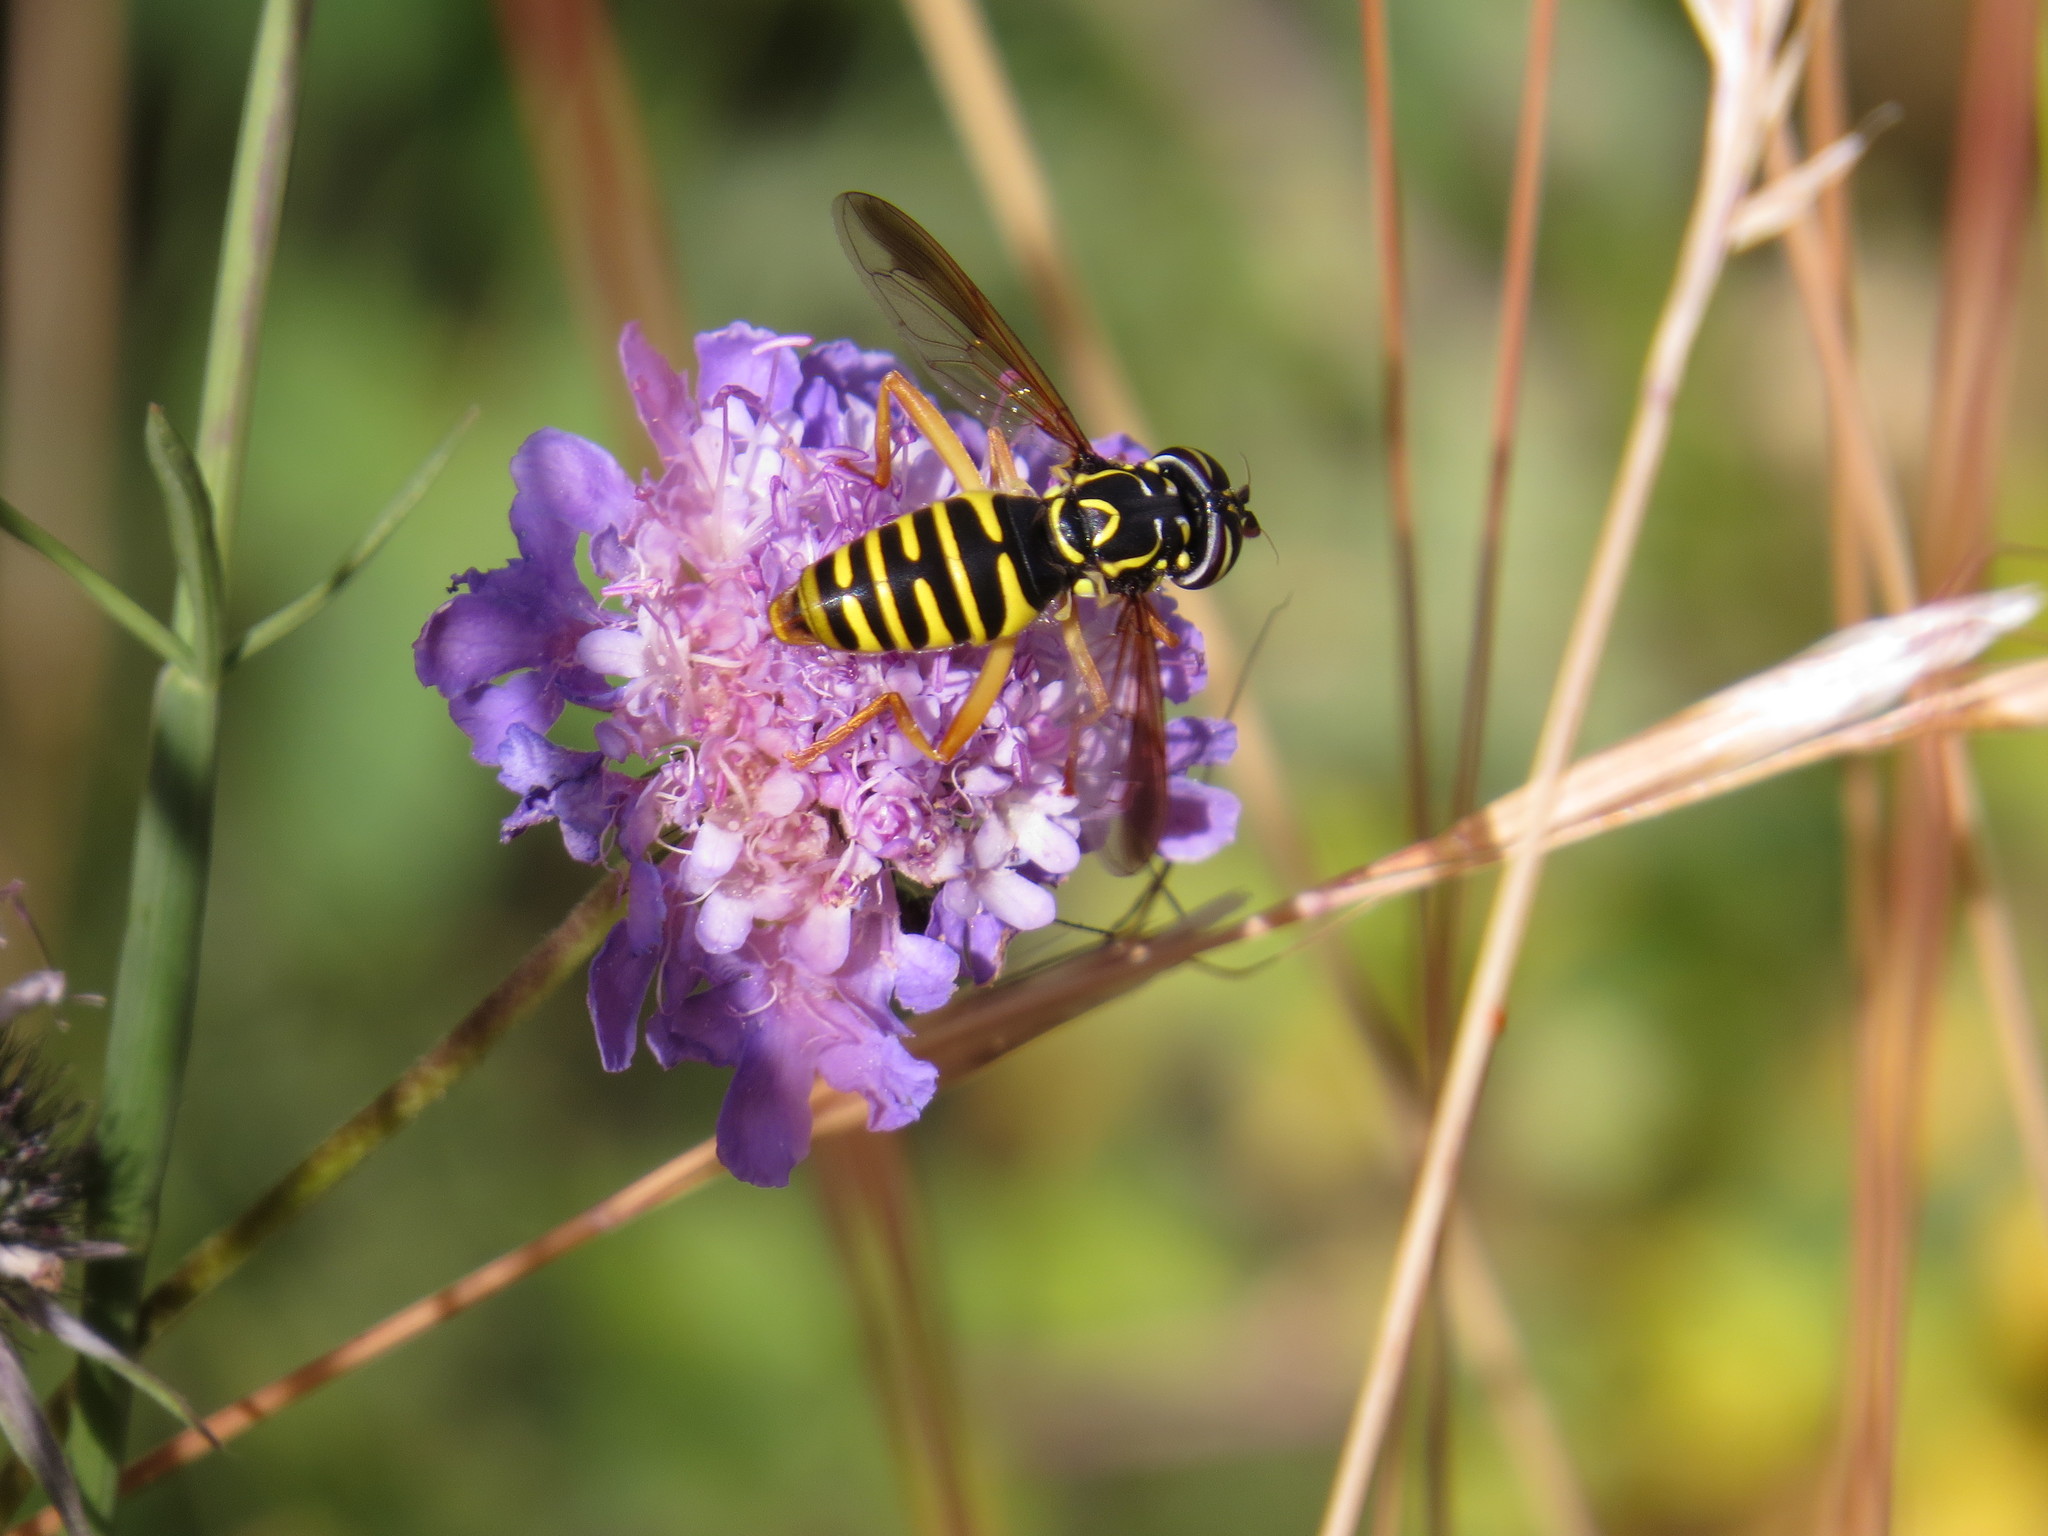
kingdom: Animalia
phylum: Arthropoda
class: Insecta
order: Diptera
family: Syrphidae
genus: Spilomyia
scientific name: Spilomyia saltuum
